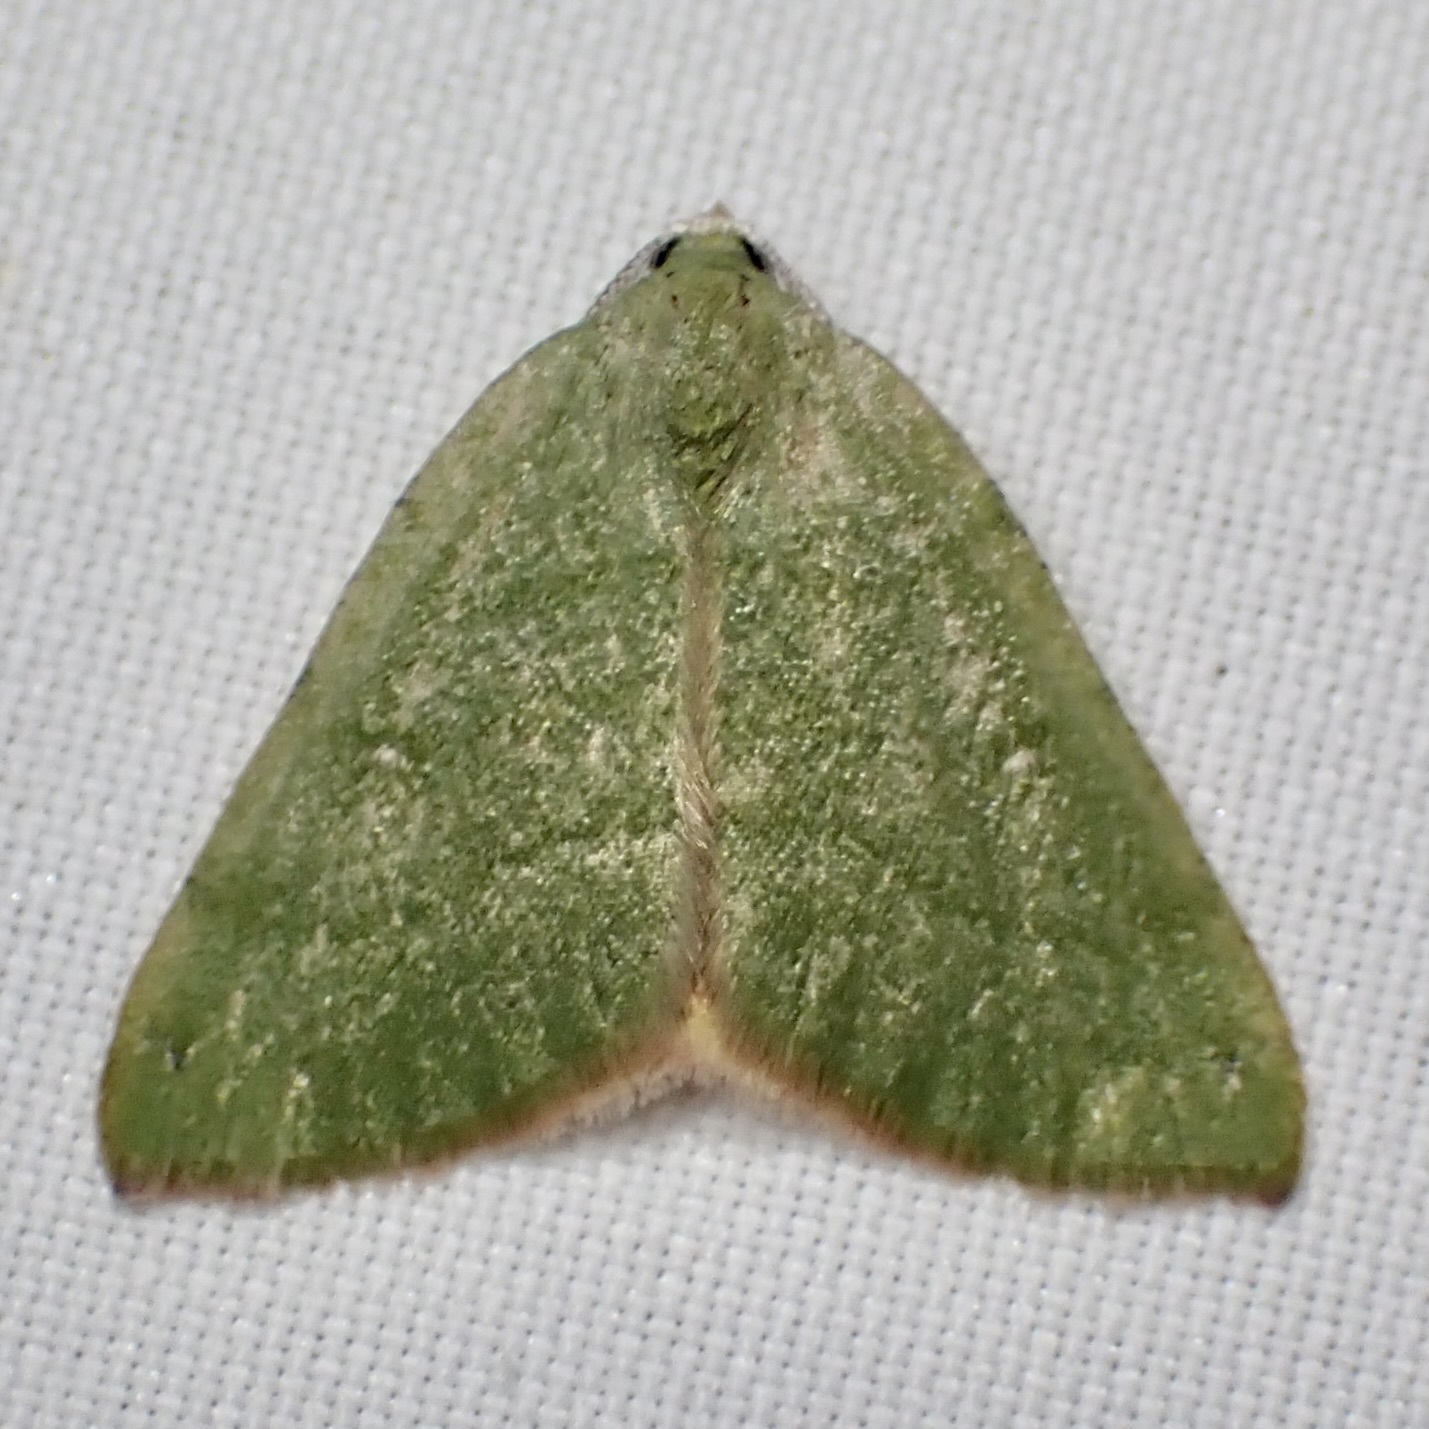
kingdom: Animalia
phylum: Arthropoda
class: Insecta
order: Lepidoptera
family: Geometridae
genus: Chloraspilates
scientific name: Chloraspilates bicoloraria
